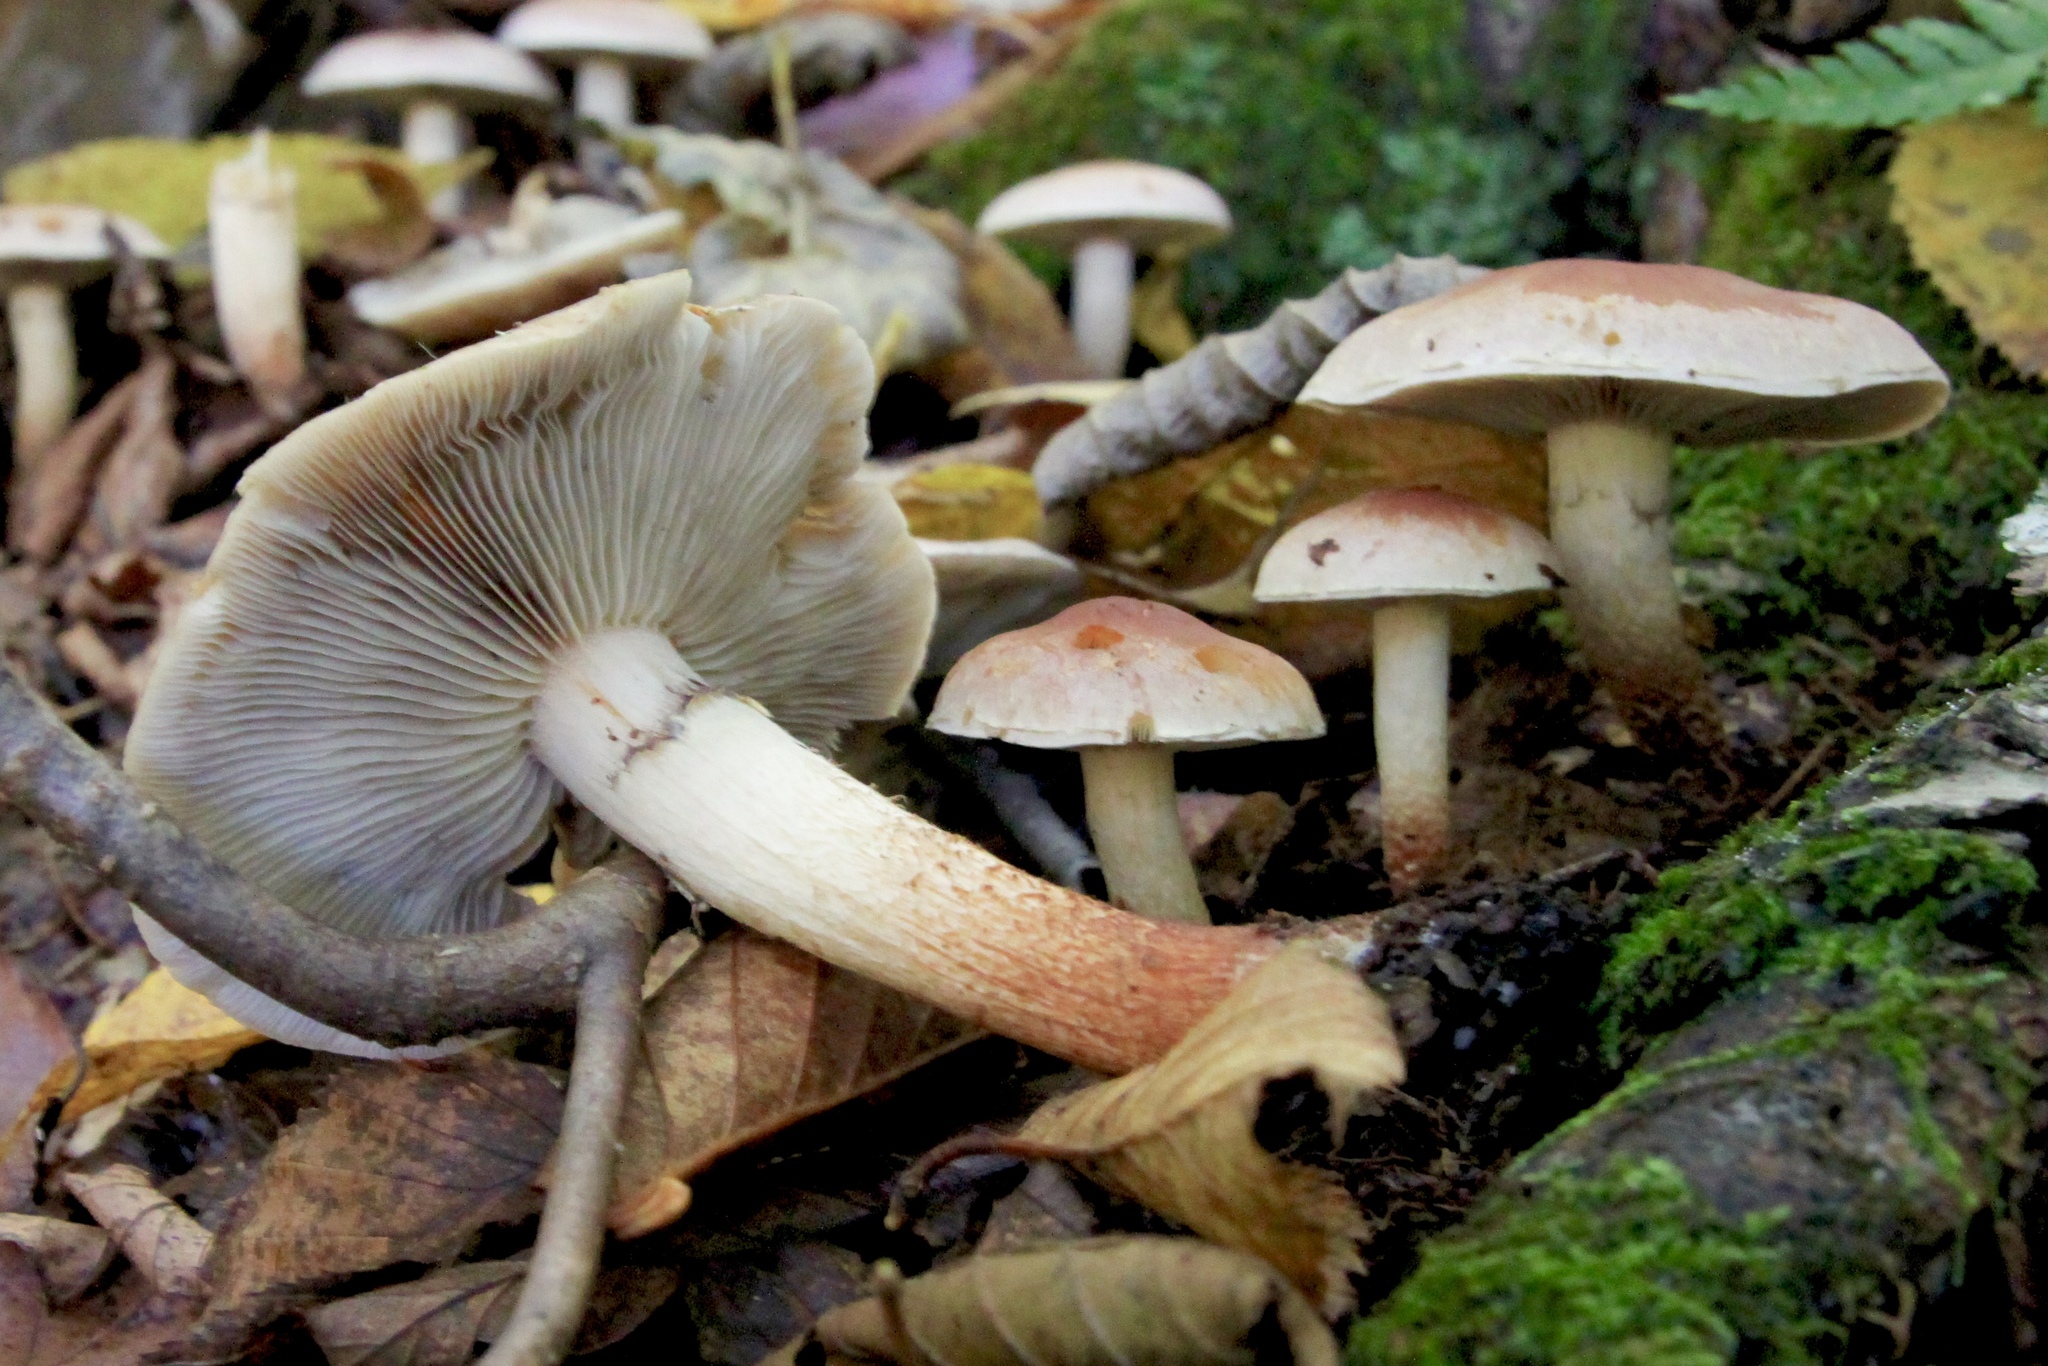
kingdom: Fungi
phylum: Basidiomycota
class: Agaricomycetes
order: Agaricales
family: Strophariaceae
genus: Hypholoma
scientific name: Hypholoma lateritium
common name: Brick caps
